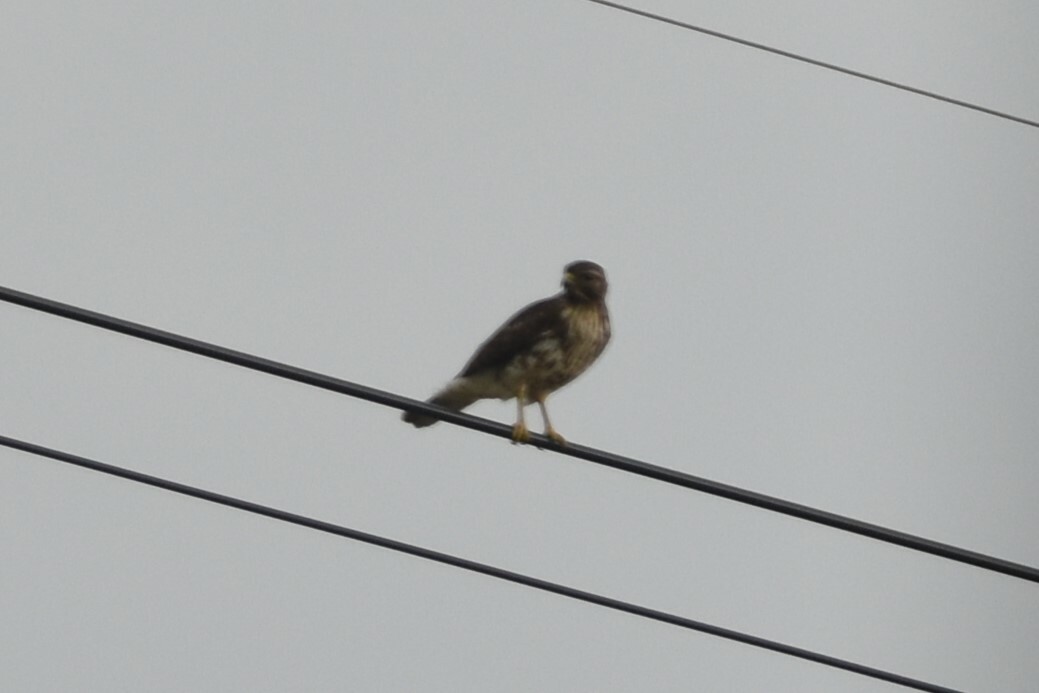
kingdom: Animalia
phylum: Chordata
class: Aves
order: Accipitriformes
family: Accipitridae
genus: Buteo
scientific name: Buteo lineatus
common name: Red-shouldered hawk
